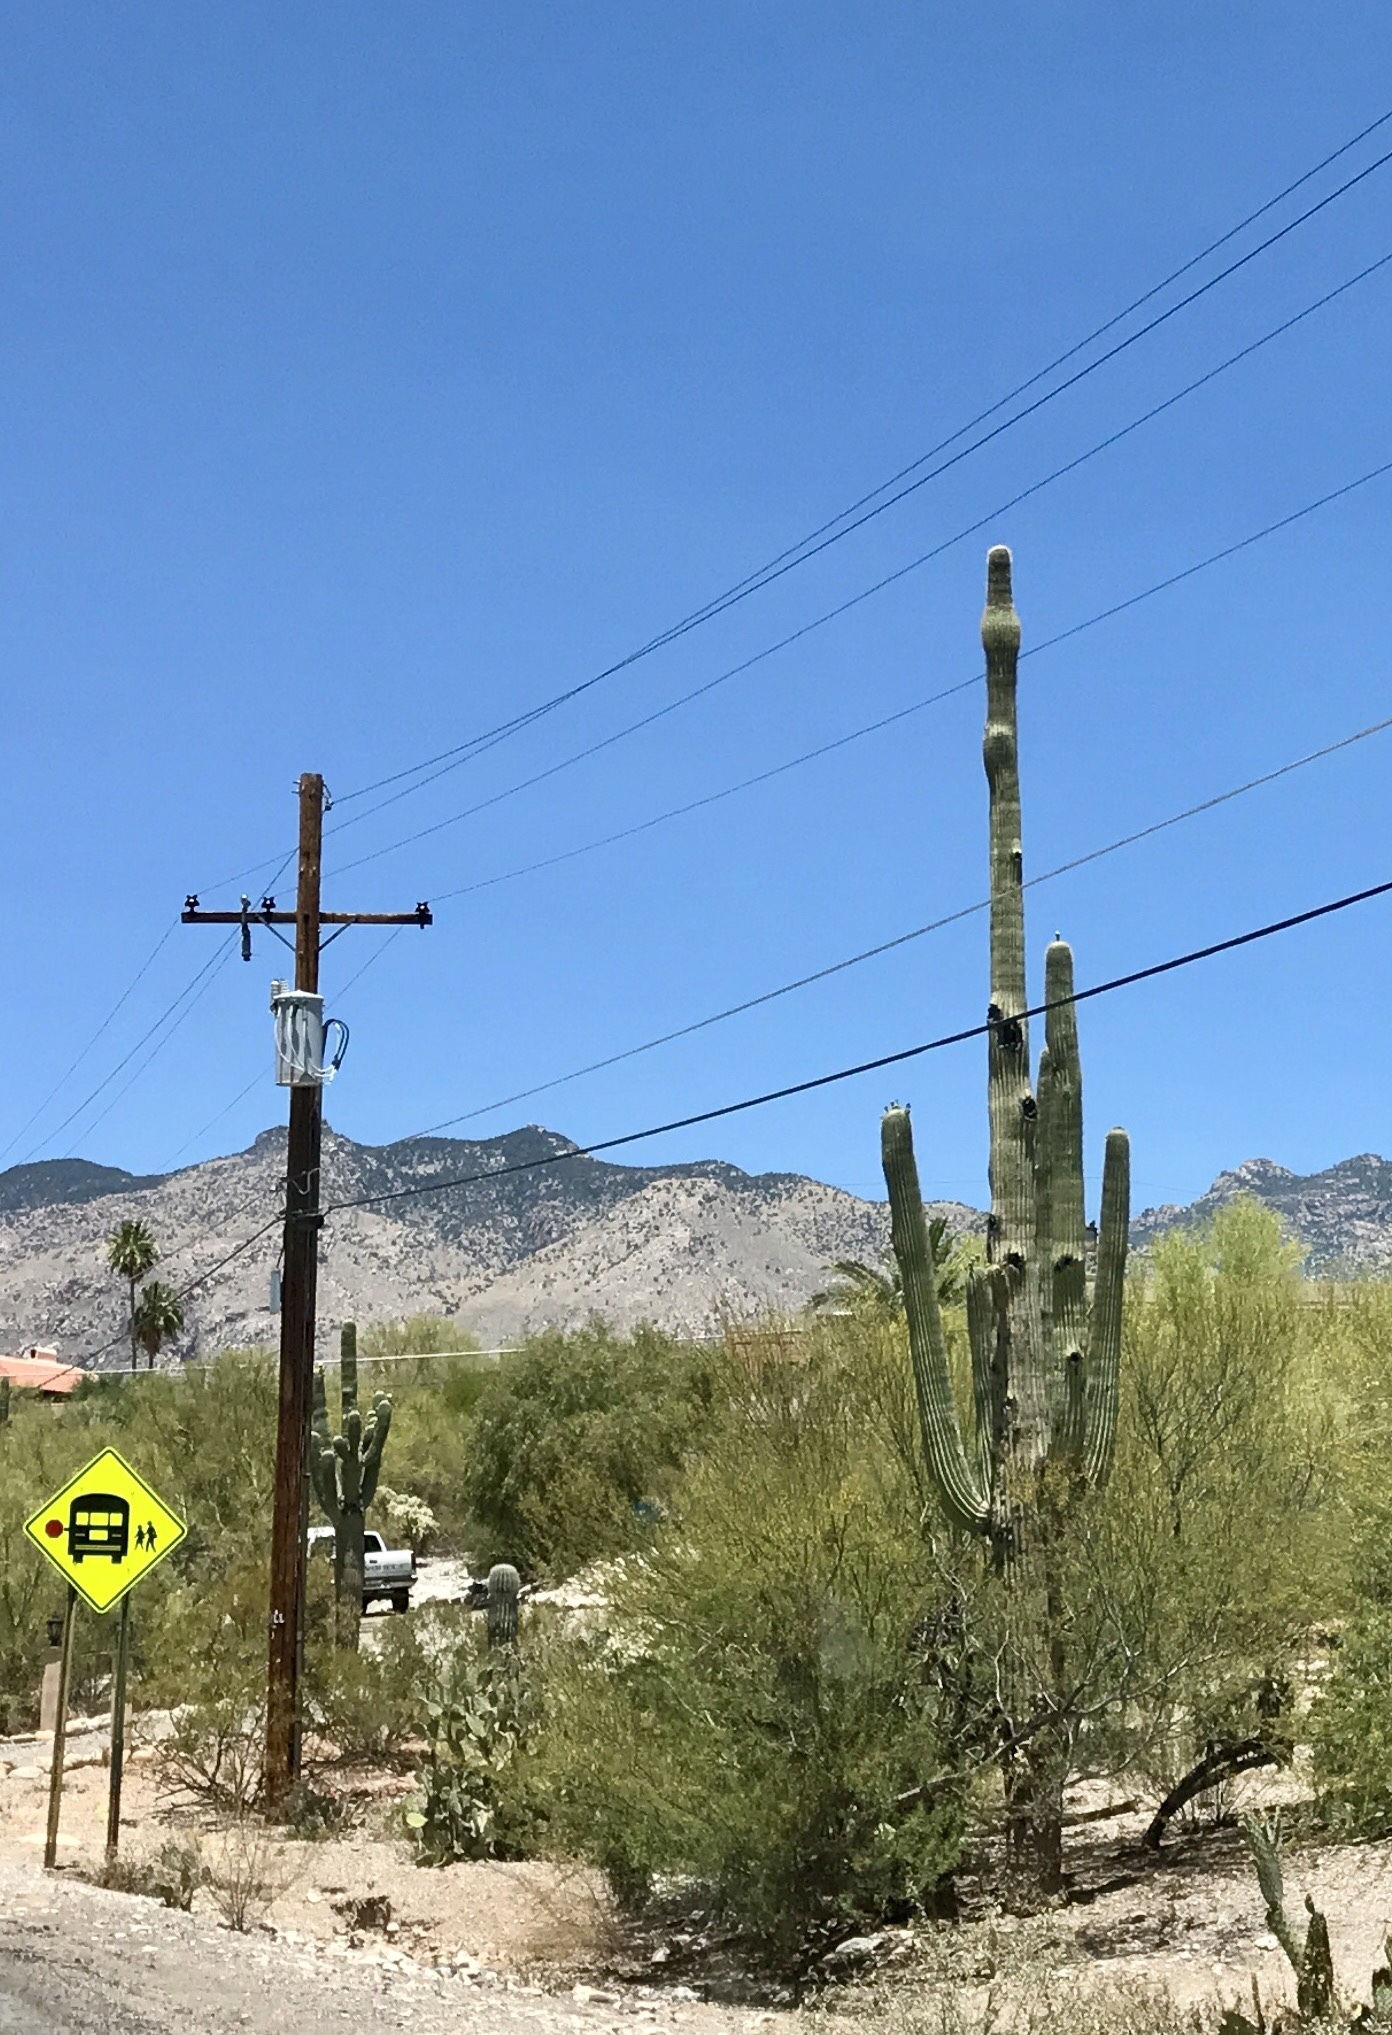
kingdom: Plantae
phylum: Tracheophyta
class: Magnoliopsida
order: Caryophyllales
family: Cactaceae
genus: Carnegiea
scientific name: Carnegiea gigantea
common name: Saguaro
